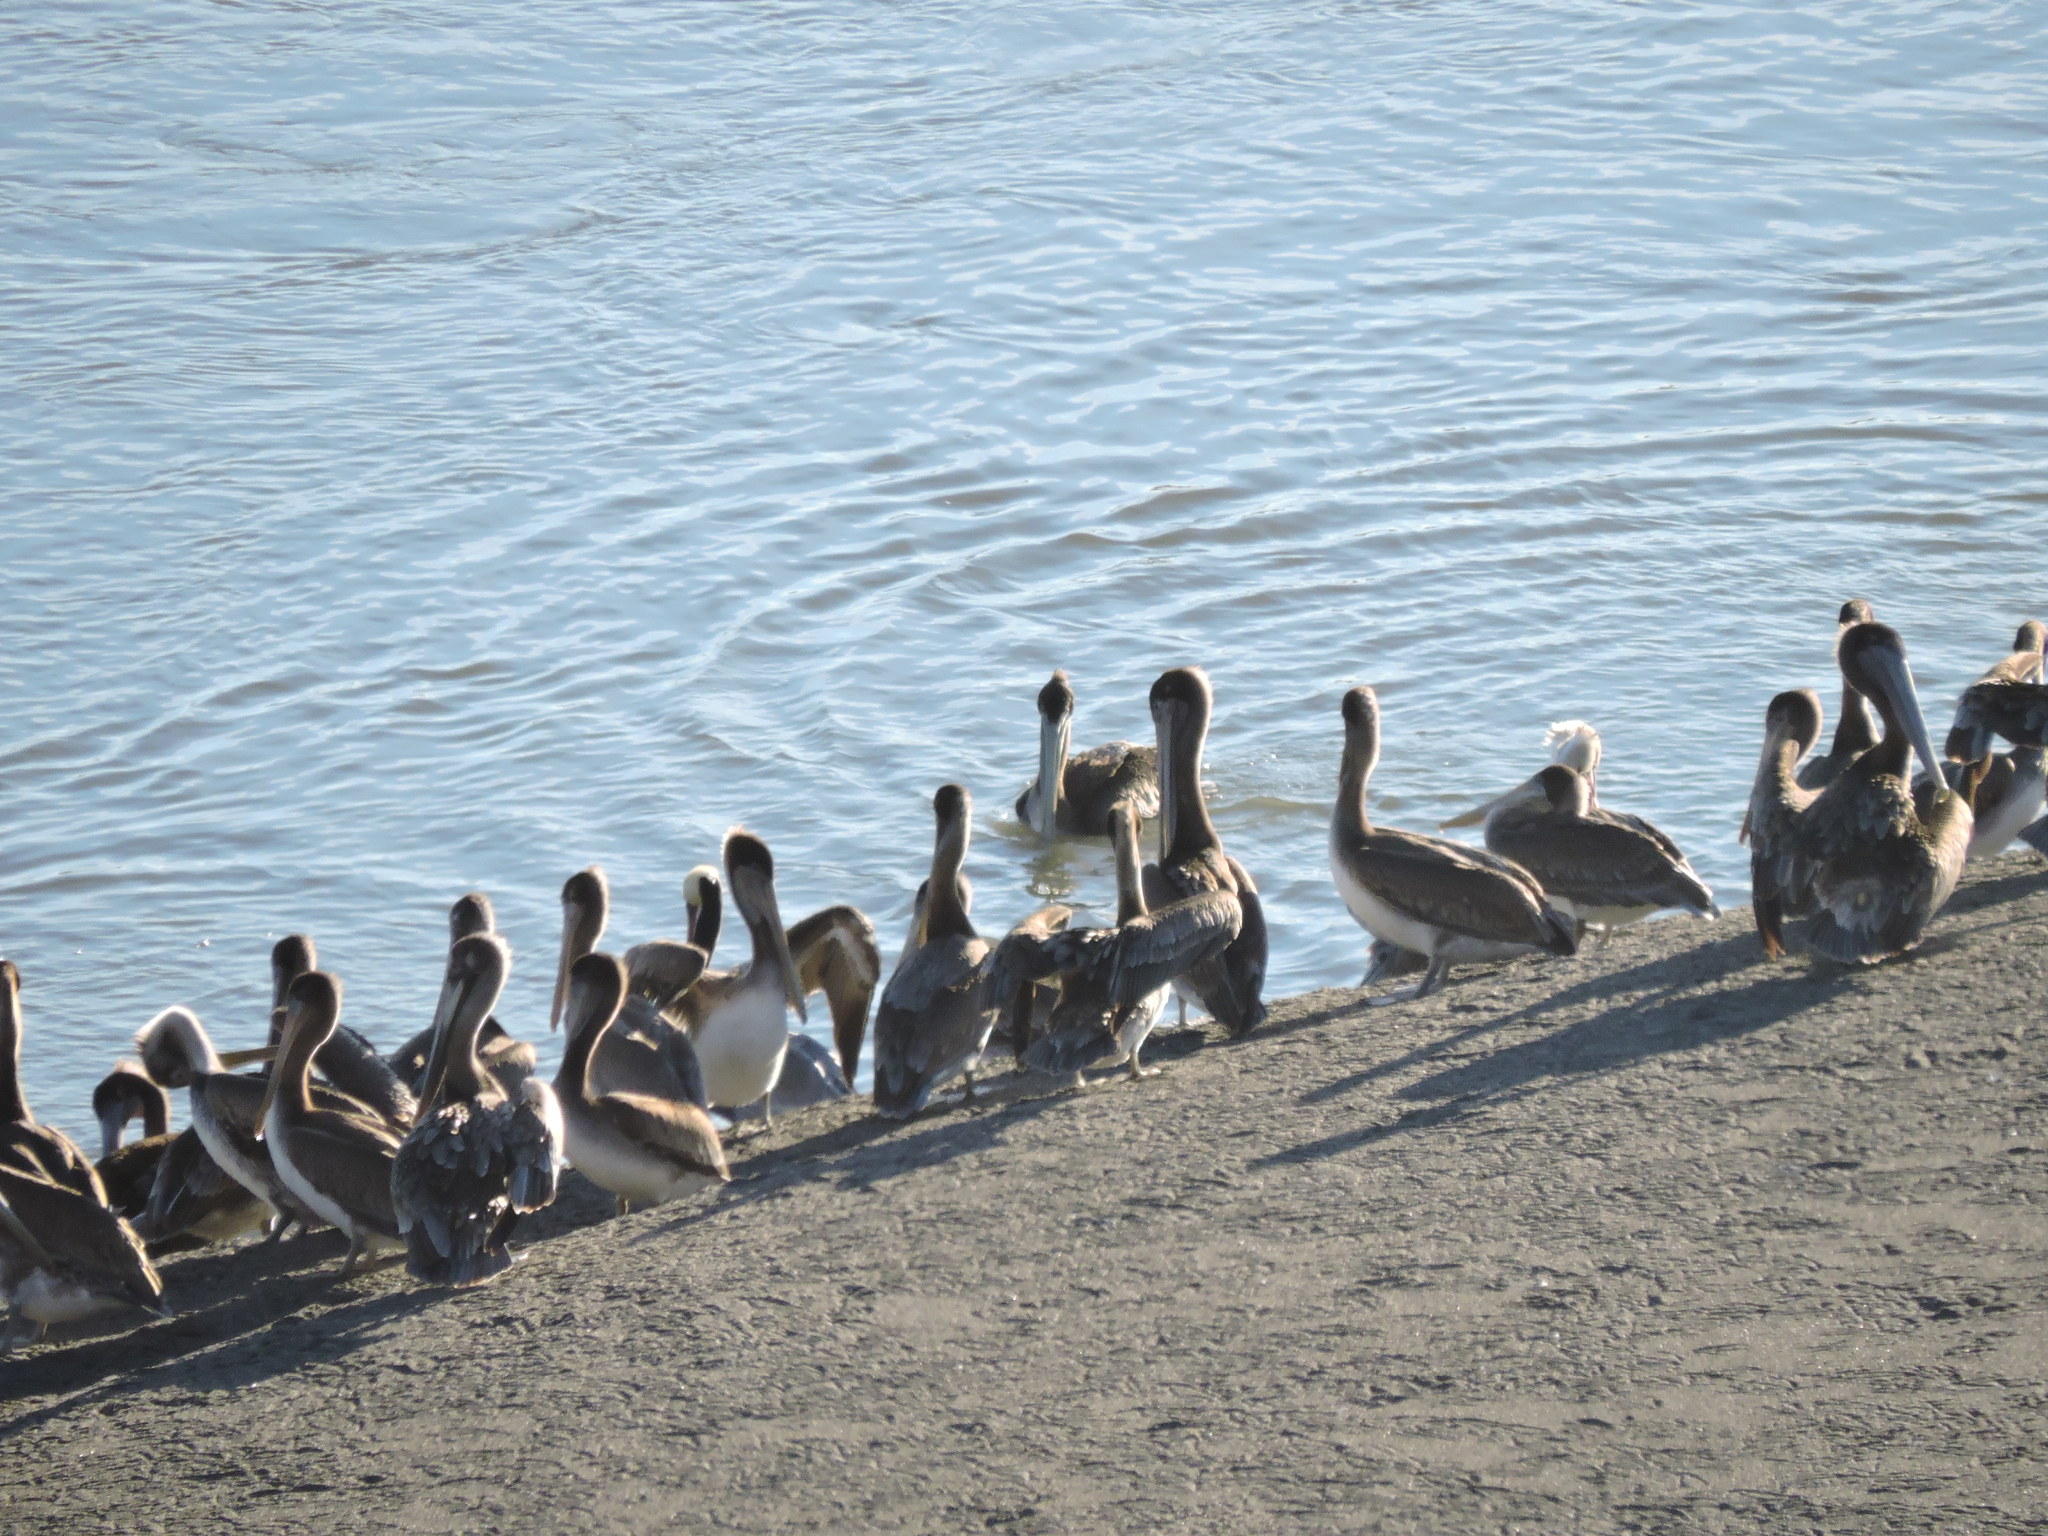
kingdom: Animalia
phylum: Chordata
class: Aves
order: Pelecaniformes
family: Pelecanidae
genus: Pelecanus
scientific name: Pelecanus occidentalis
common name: Brown pelican
